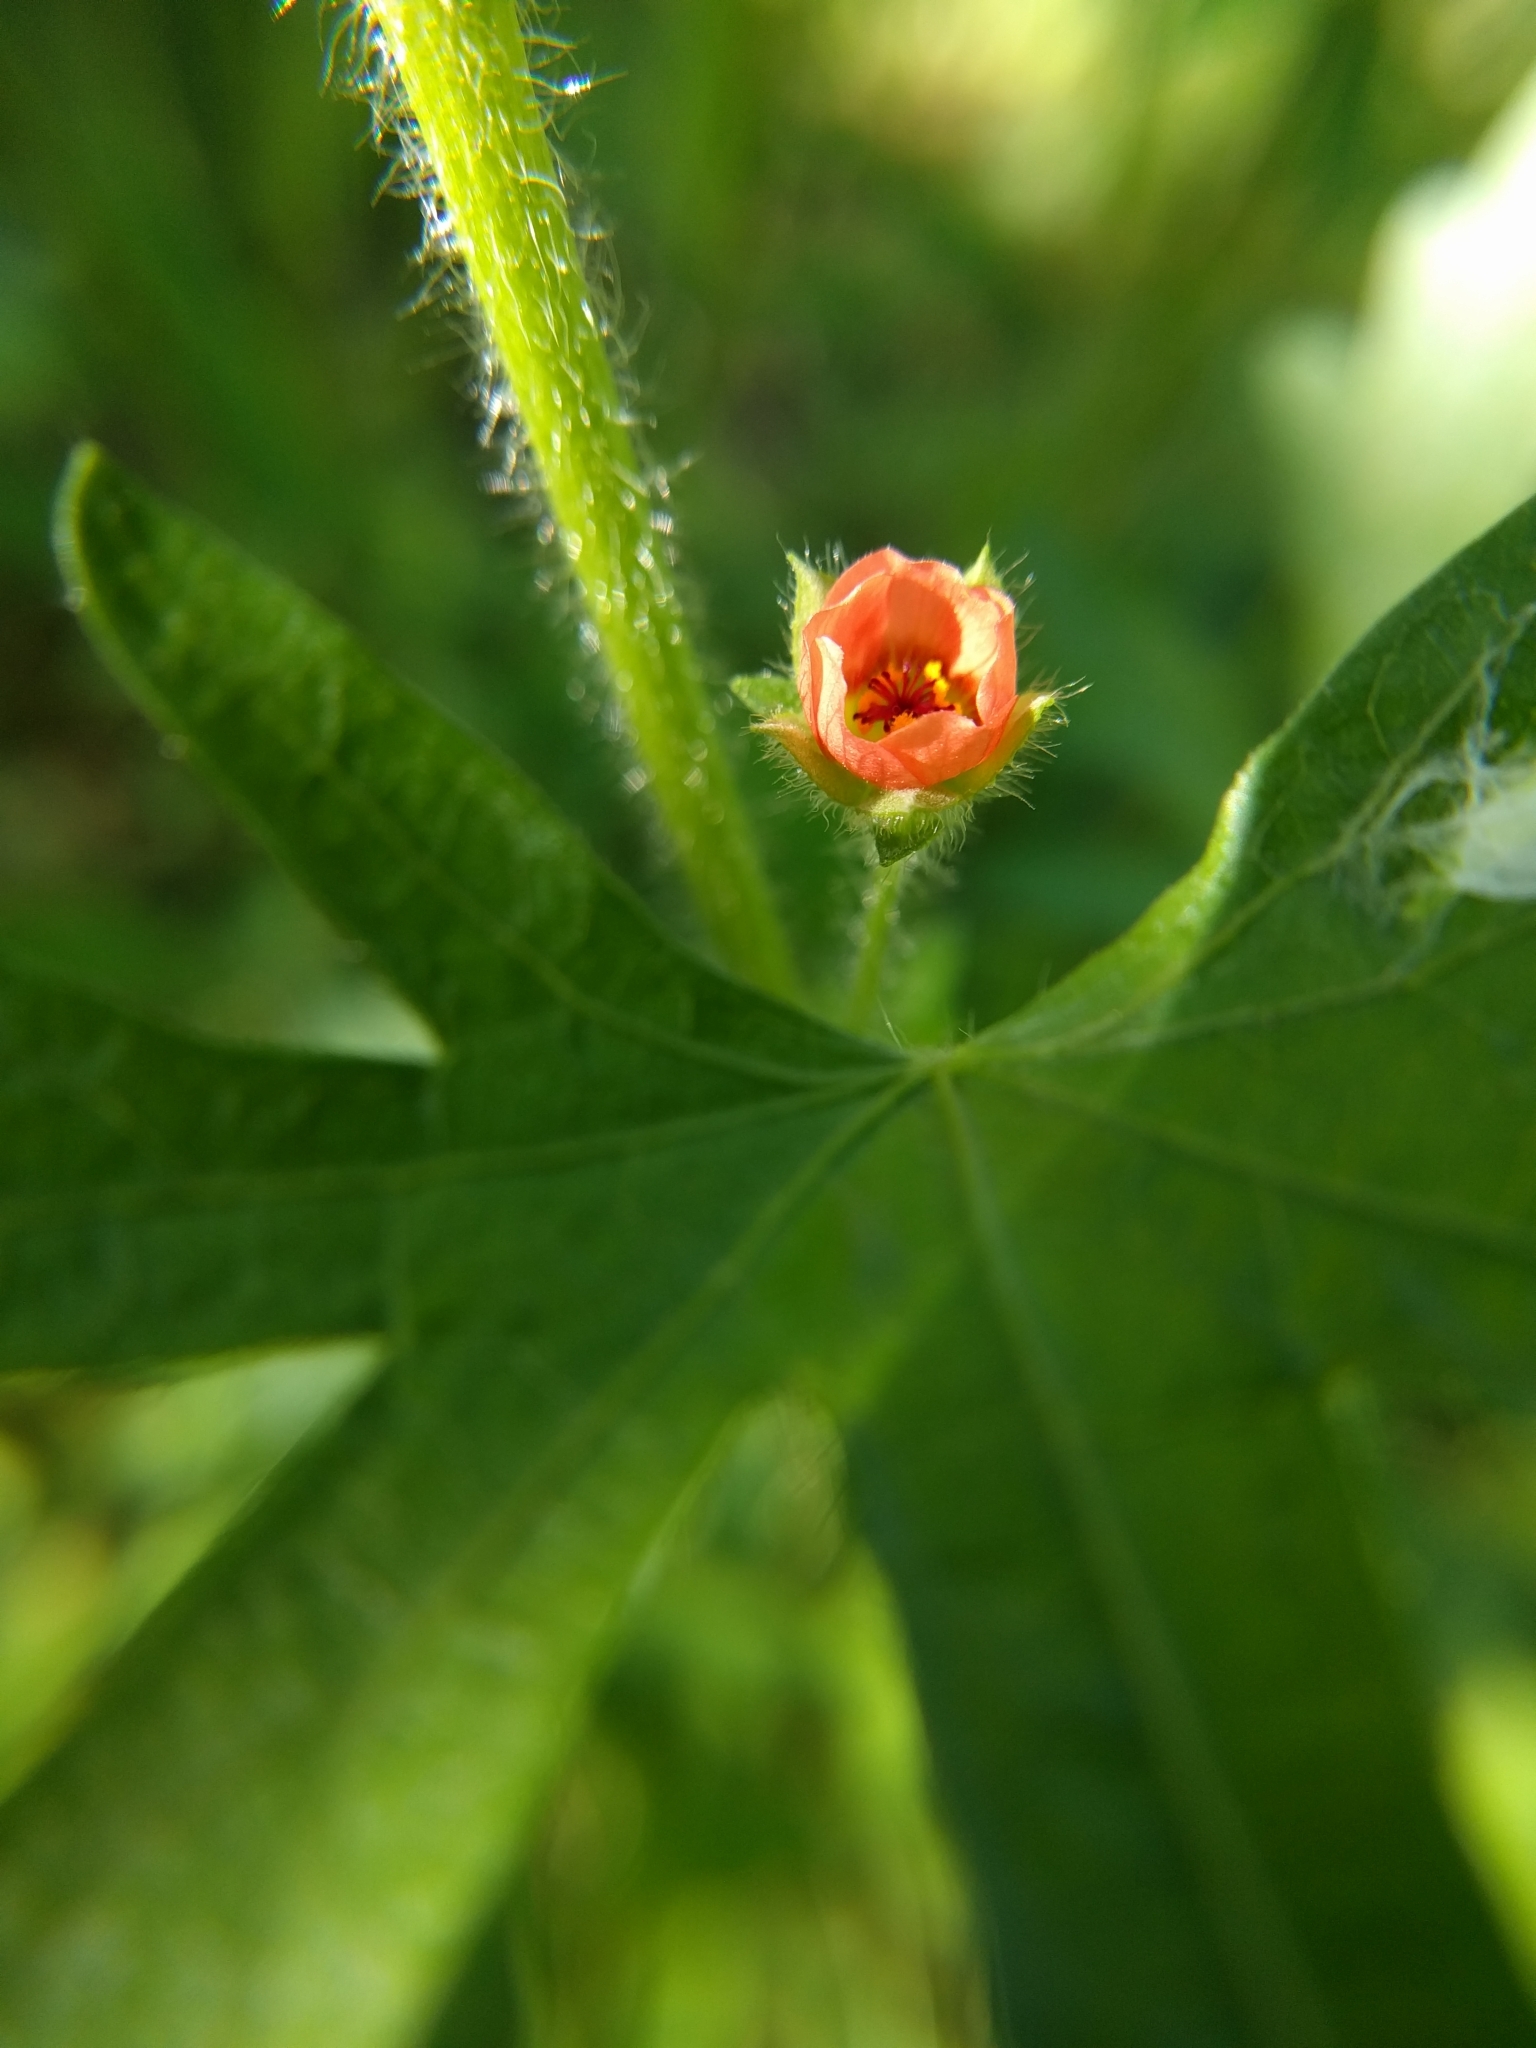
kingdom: Plantae
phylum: Tracheophyta
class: Magnoliopsida
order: Malvales
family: Malvaceae
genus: Modiola
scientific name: Modiola caroliniana
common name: Carolina bristlemallow
